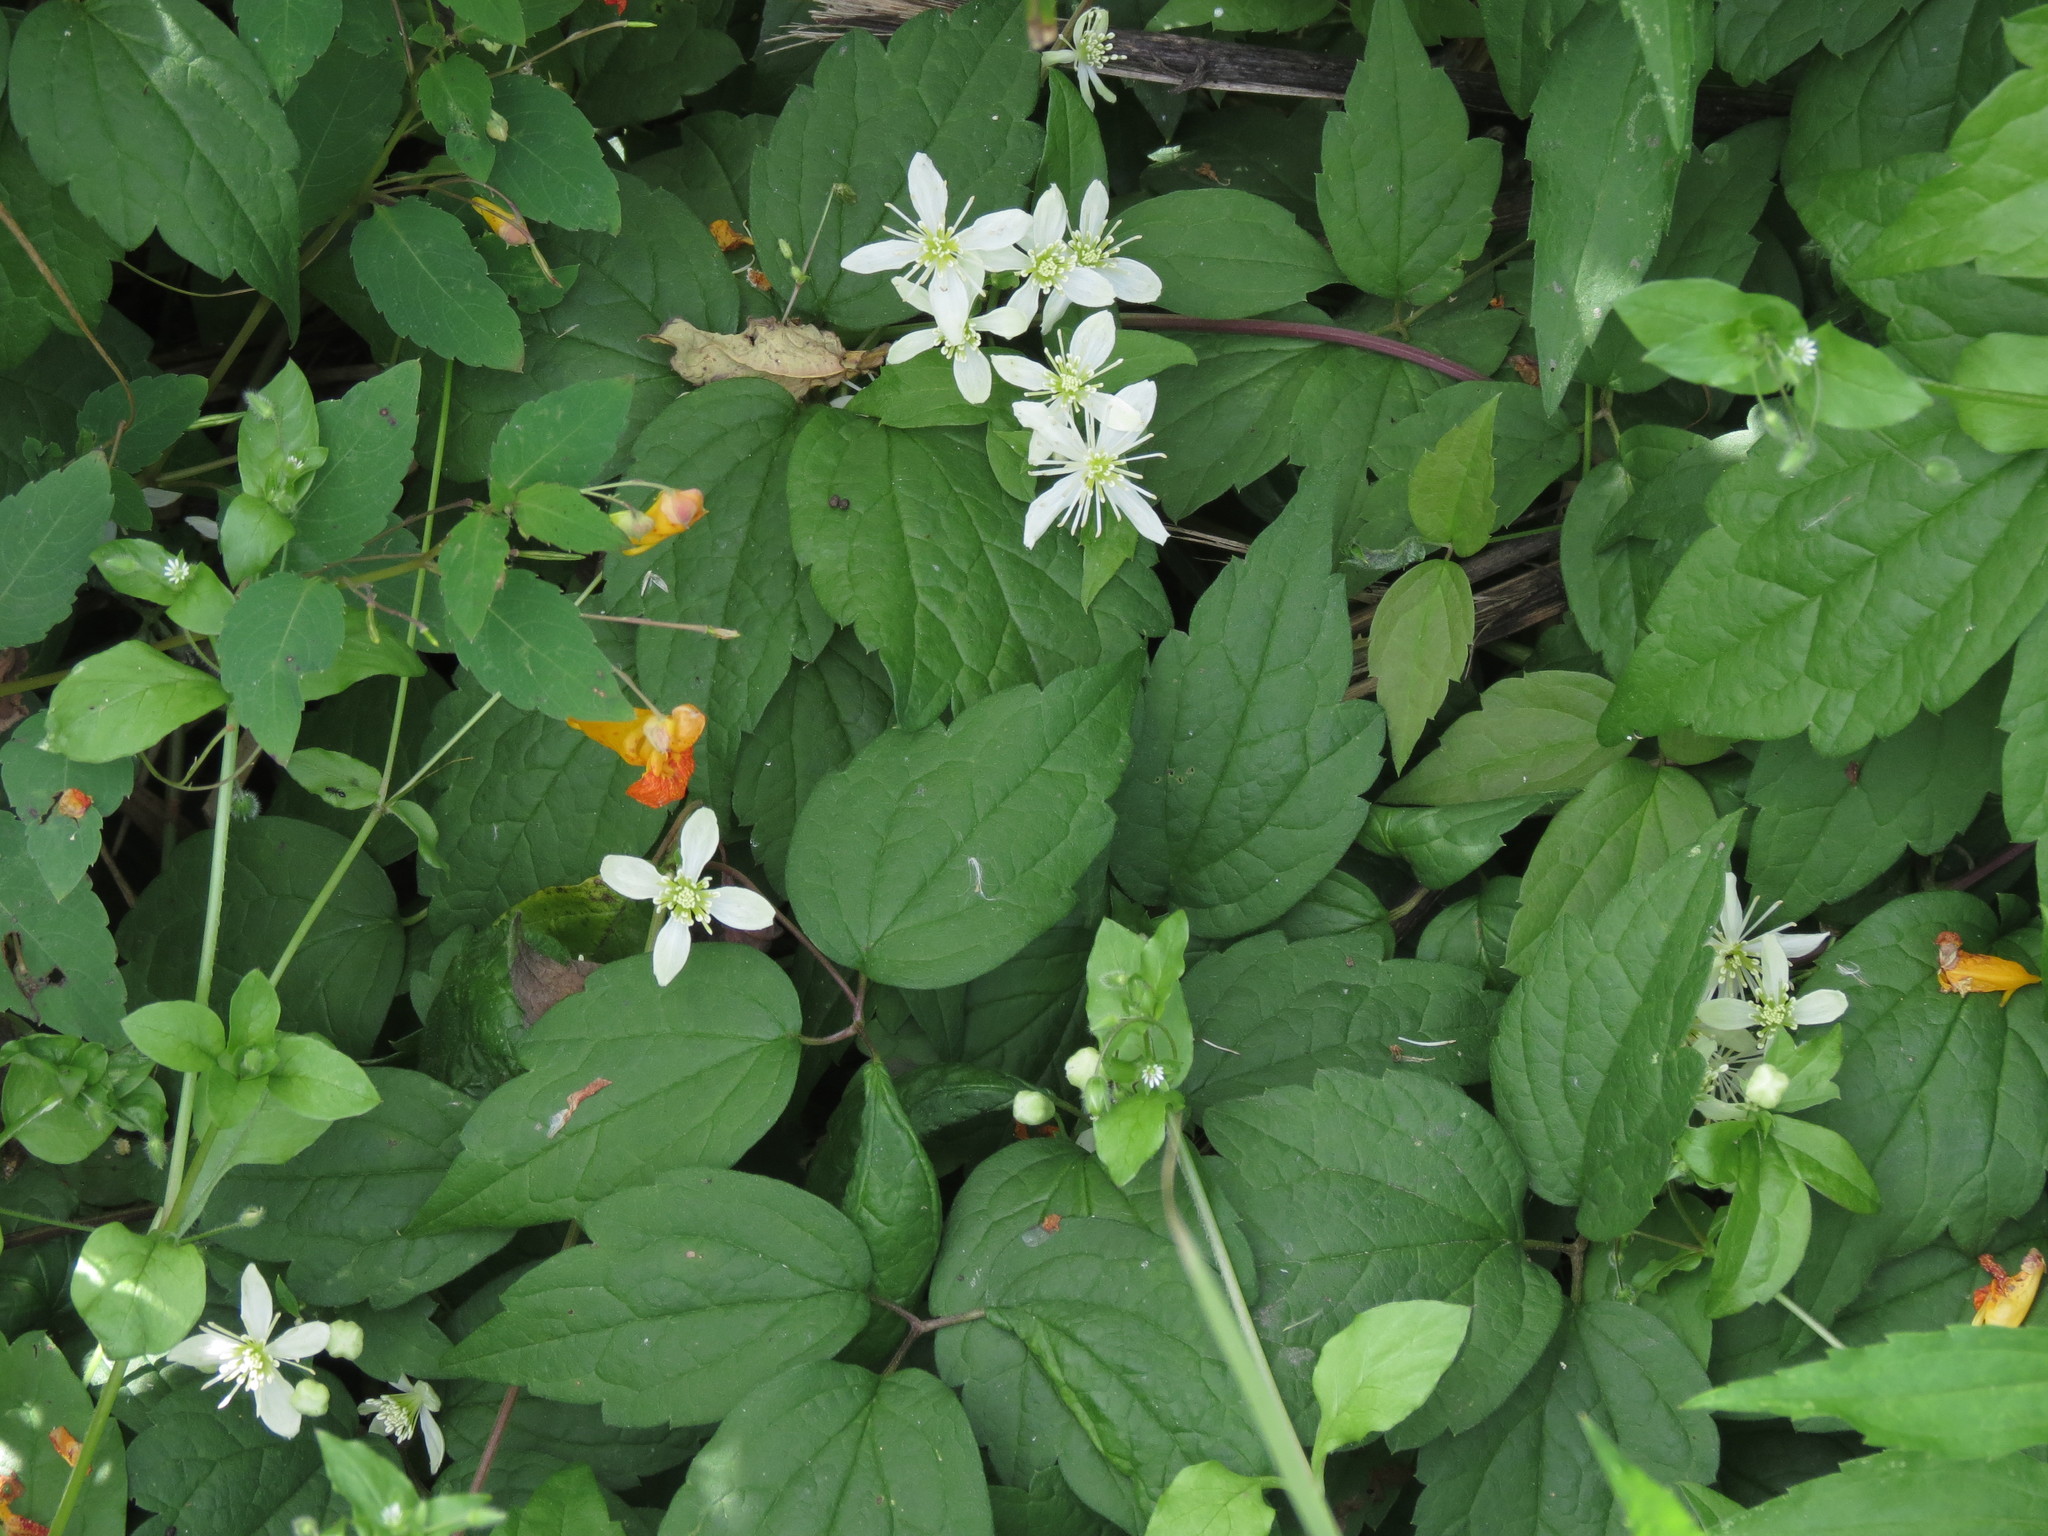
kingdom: Plantae
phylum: Tracheophyta
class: Magnoliopsida
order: Ranunculales
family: Ranunculaceae
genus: Clematis
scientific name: Clematis virginiana
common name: Virgin's-bower
